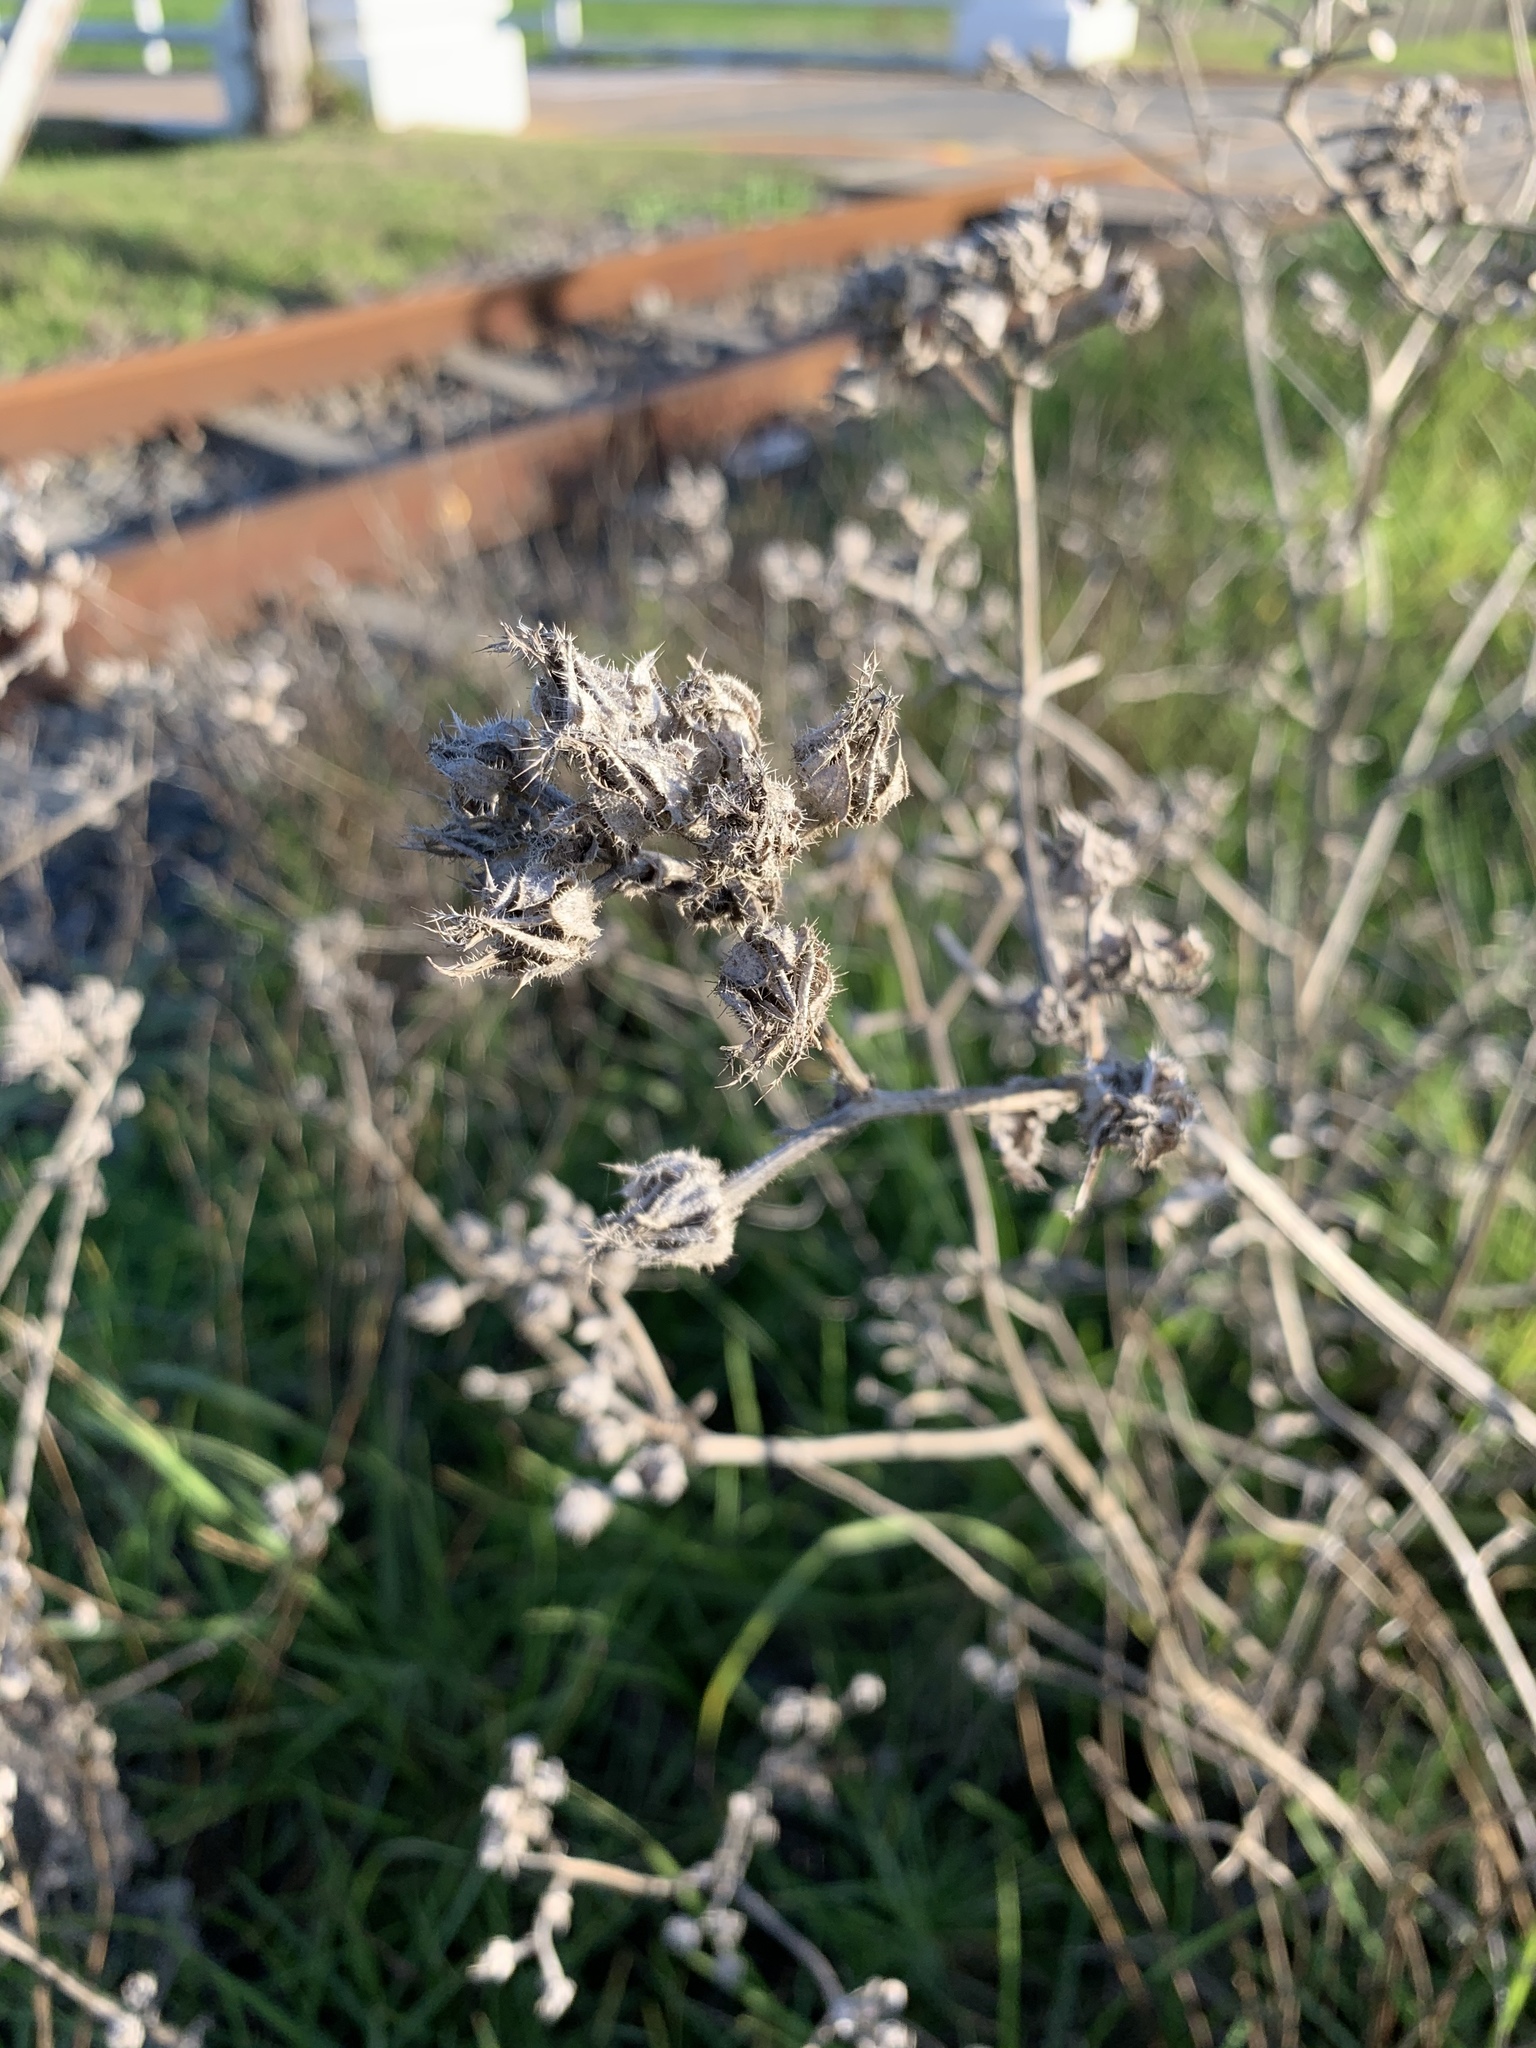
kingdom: Plantae
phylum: Tracheophyta
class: Magnoliopsida
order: Asterales
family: Asteraceae
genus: Helminthotheca
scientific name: Helminthotheca echioides
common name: Ox-tongue
